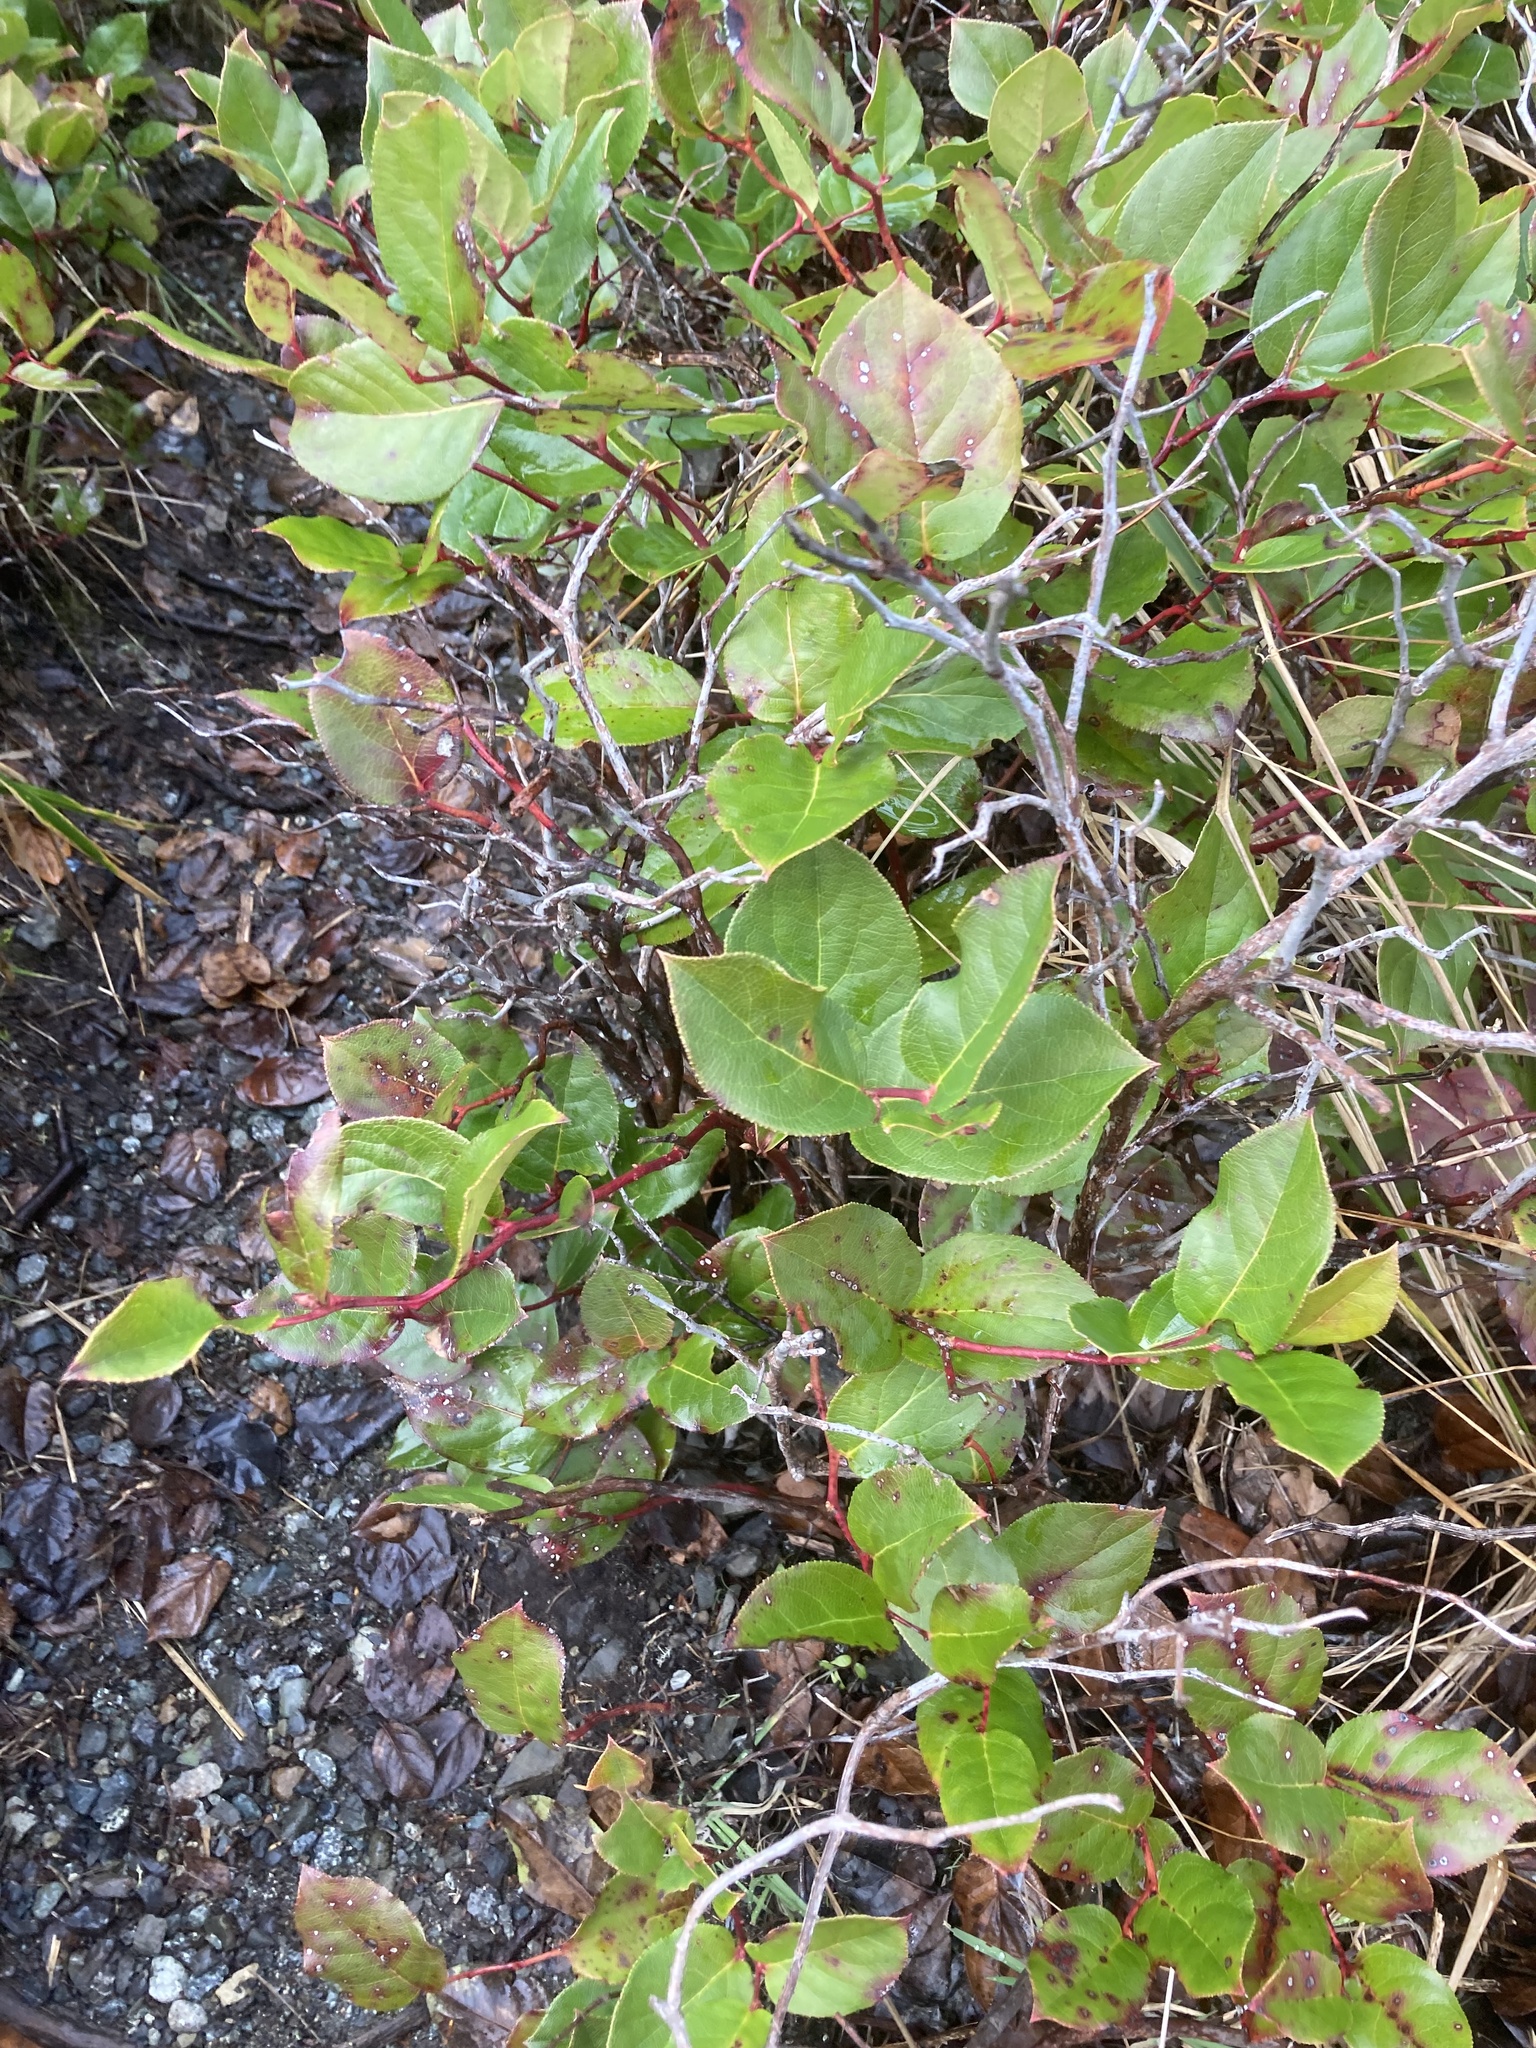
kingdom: Plantae
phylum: Tracheophyta
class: Magnoliopsida
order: Ericales
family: Ericaceae
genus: Gaultheria
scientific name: Gaultheria shallon
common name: Shallon
